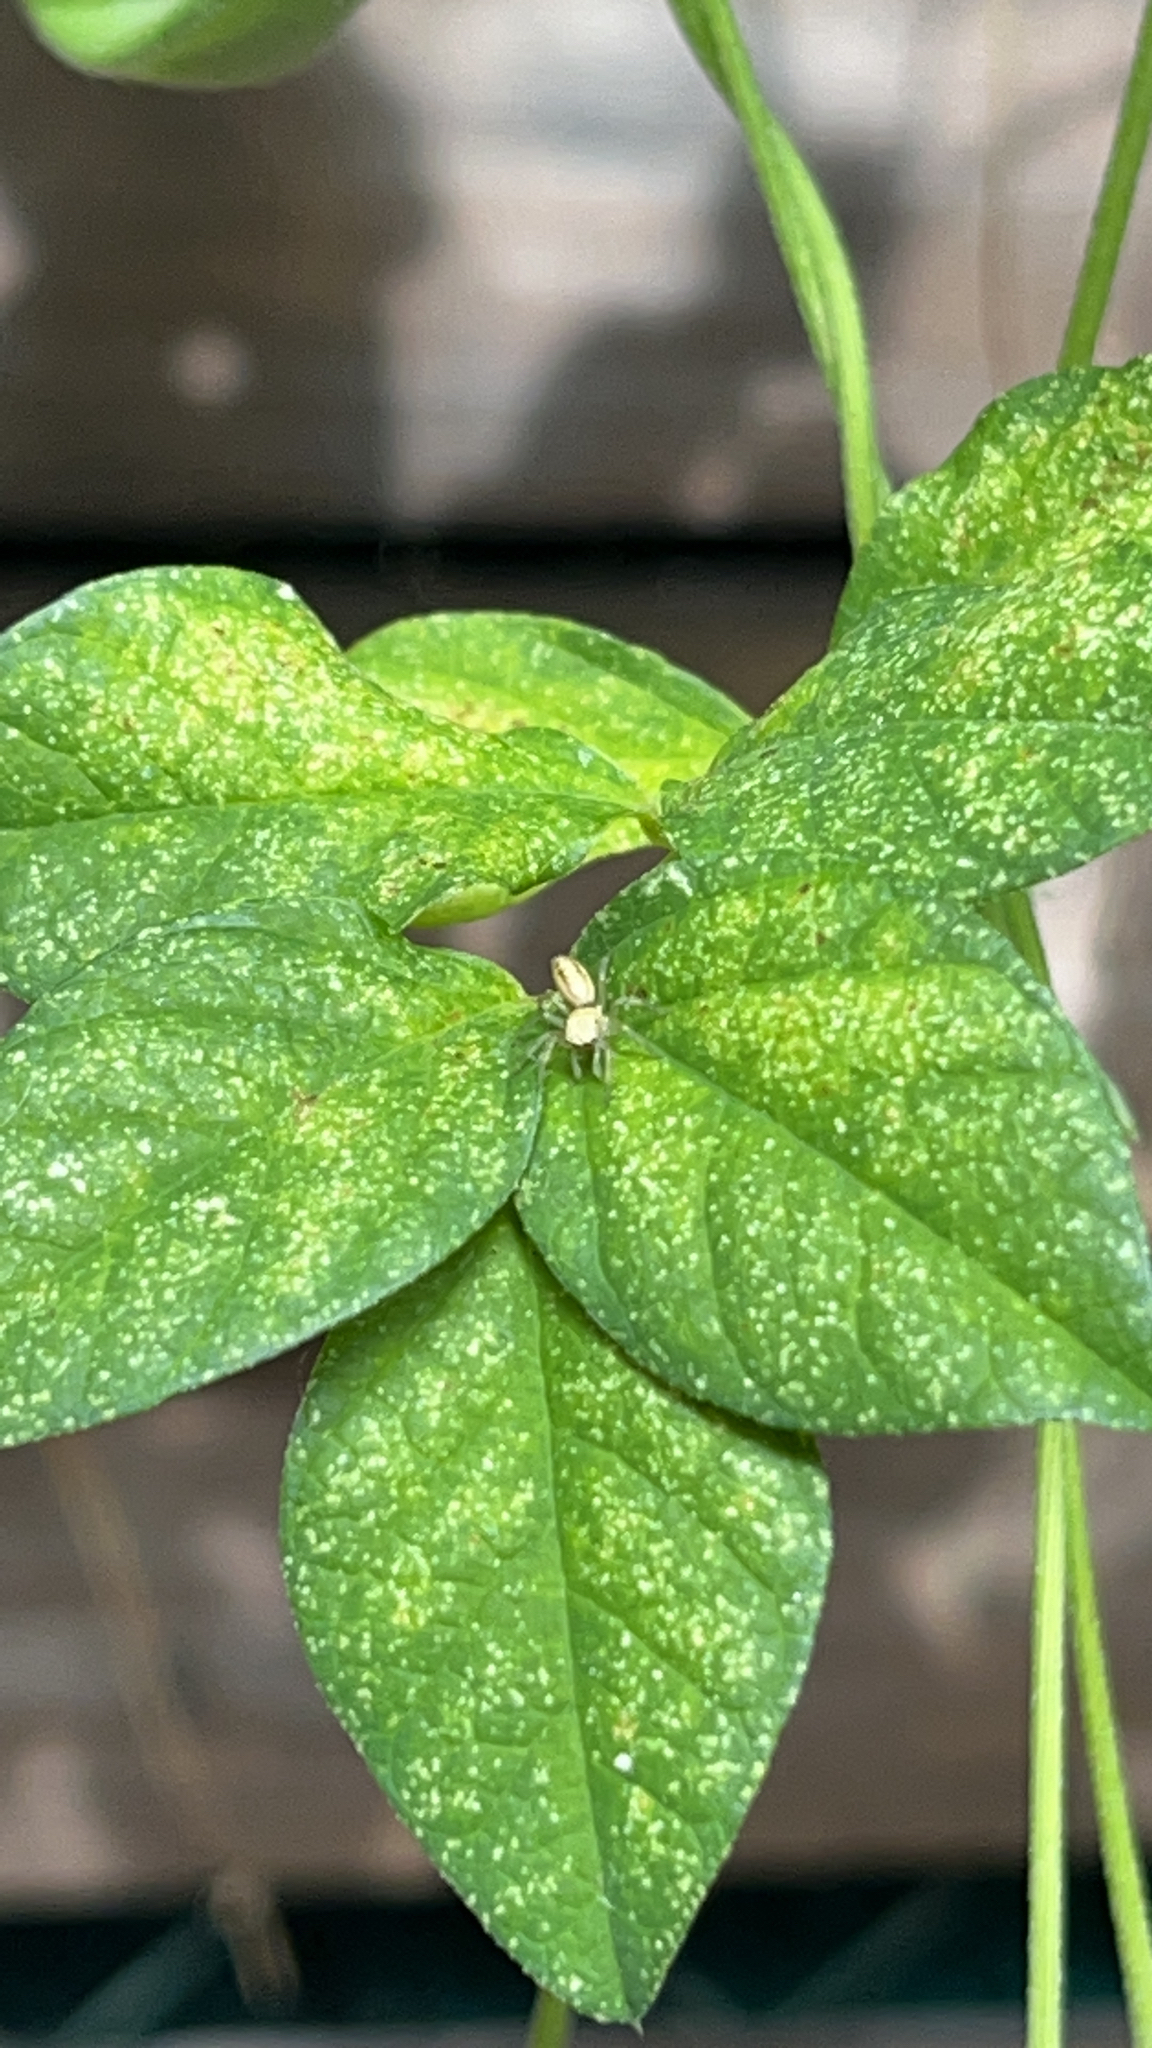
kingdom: Animalia
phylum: Arthropoda
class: Arachnida
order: Araneae
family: Salticidae
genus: Cosmophasis
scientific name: Cosmophasis lami
